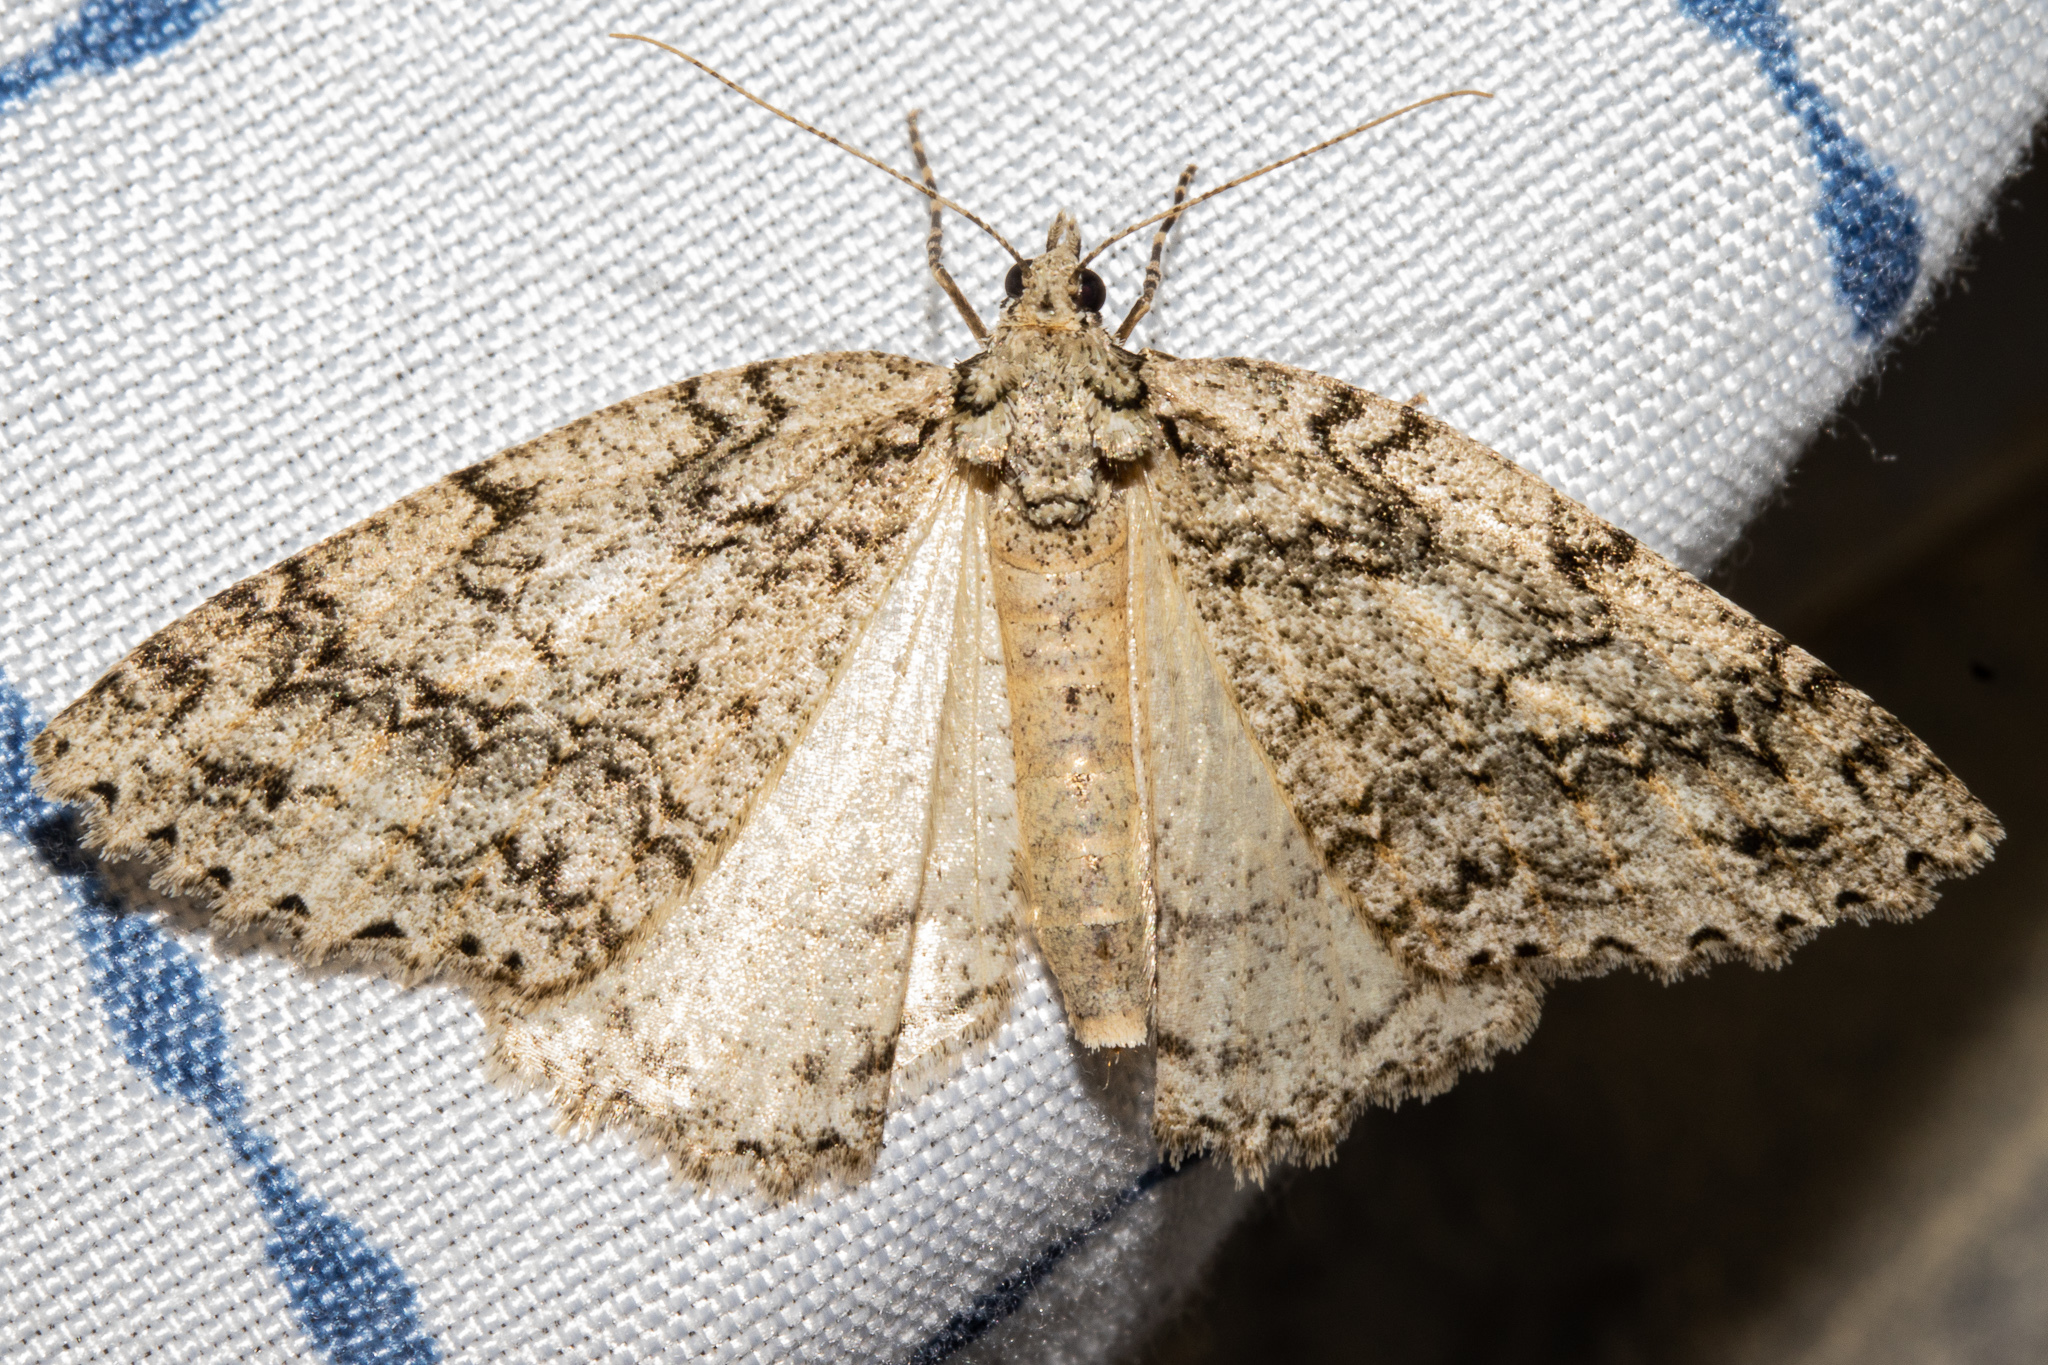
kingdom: Animalia
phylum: Arthropoda
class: Insecta
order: Lepidoptera
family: Geometridae
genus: Pseudocoremia
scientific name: Pseudocoremia rudisata
